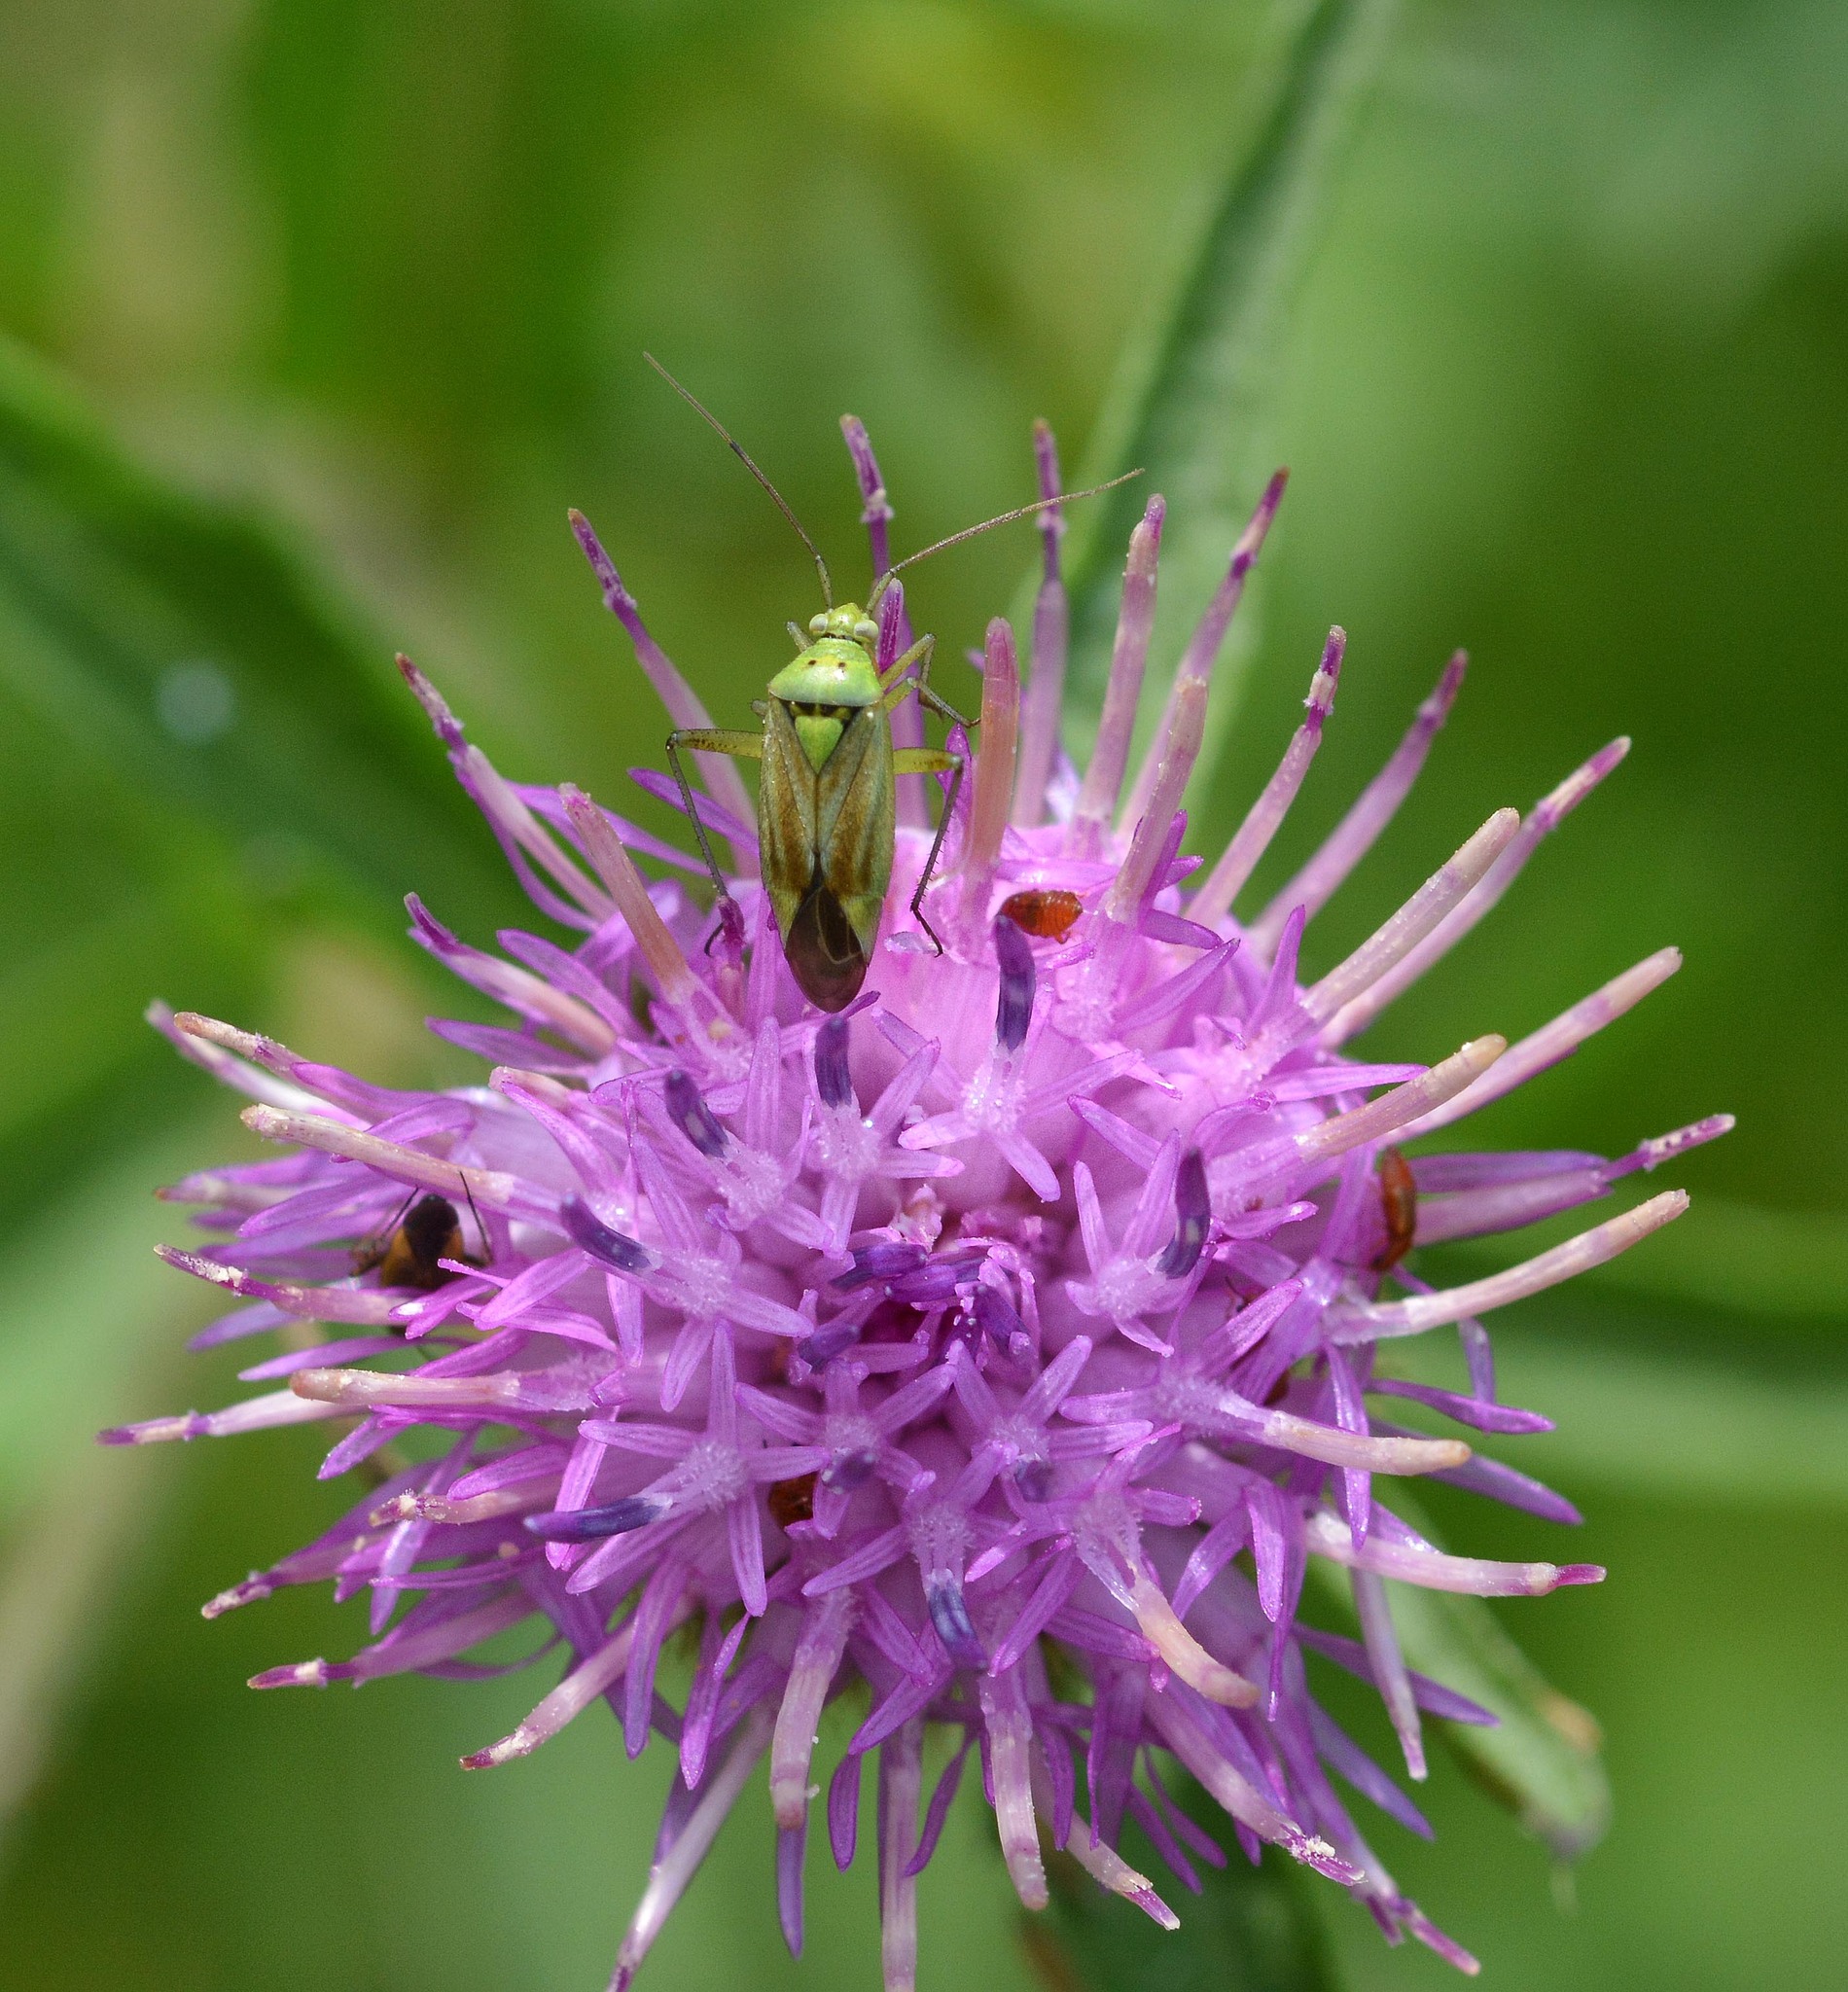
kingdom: Animalia
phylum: Arthropoda
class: Insecta
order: Hemiptera
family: Miridae
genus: Closterotomus
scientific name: Closterotomus norvegicus
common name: Plant bug
